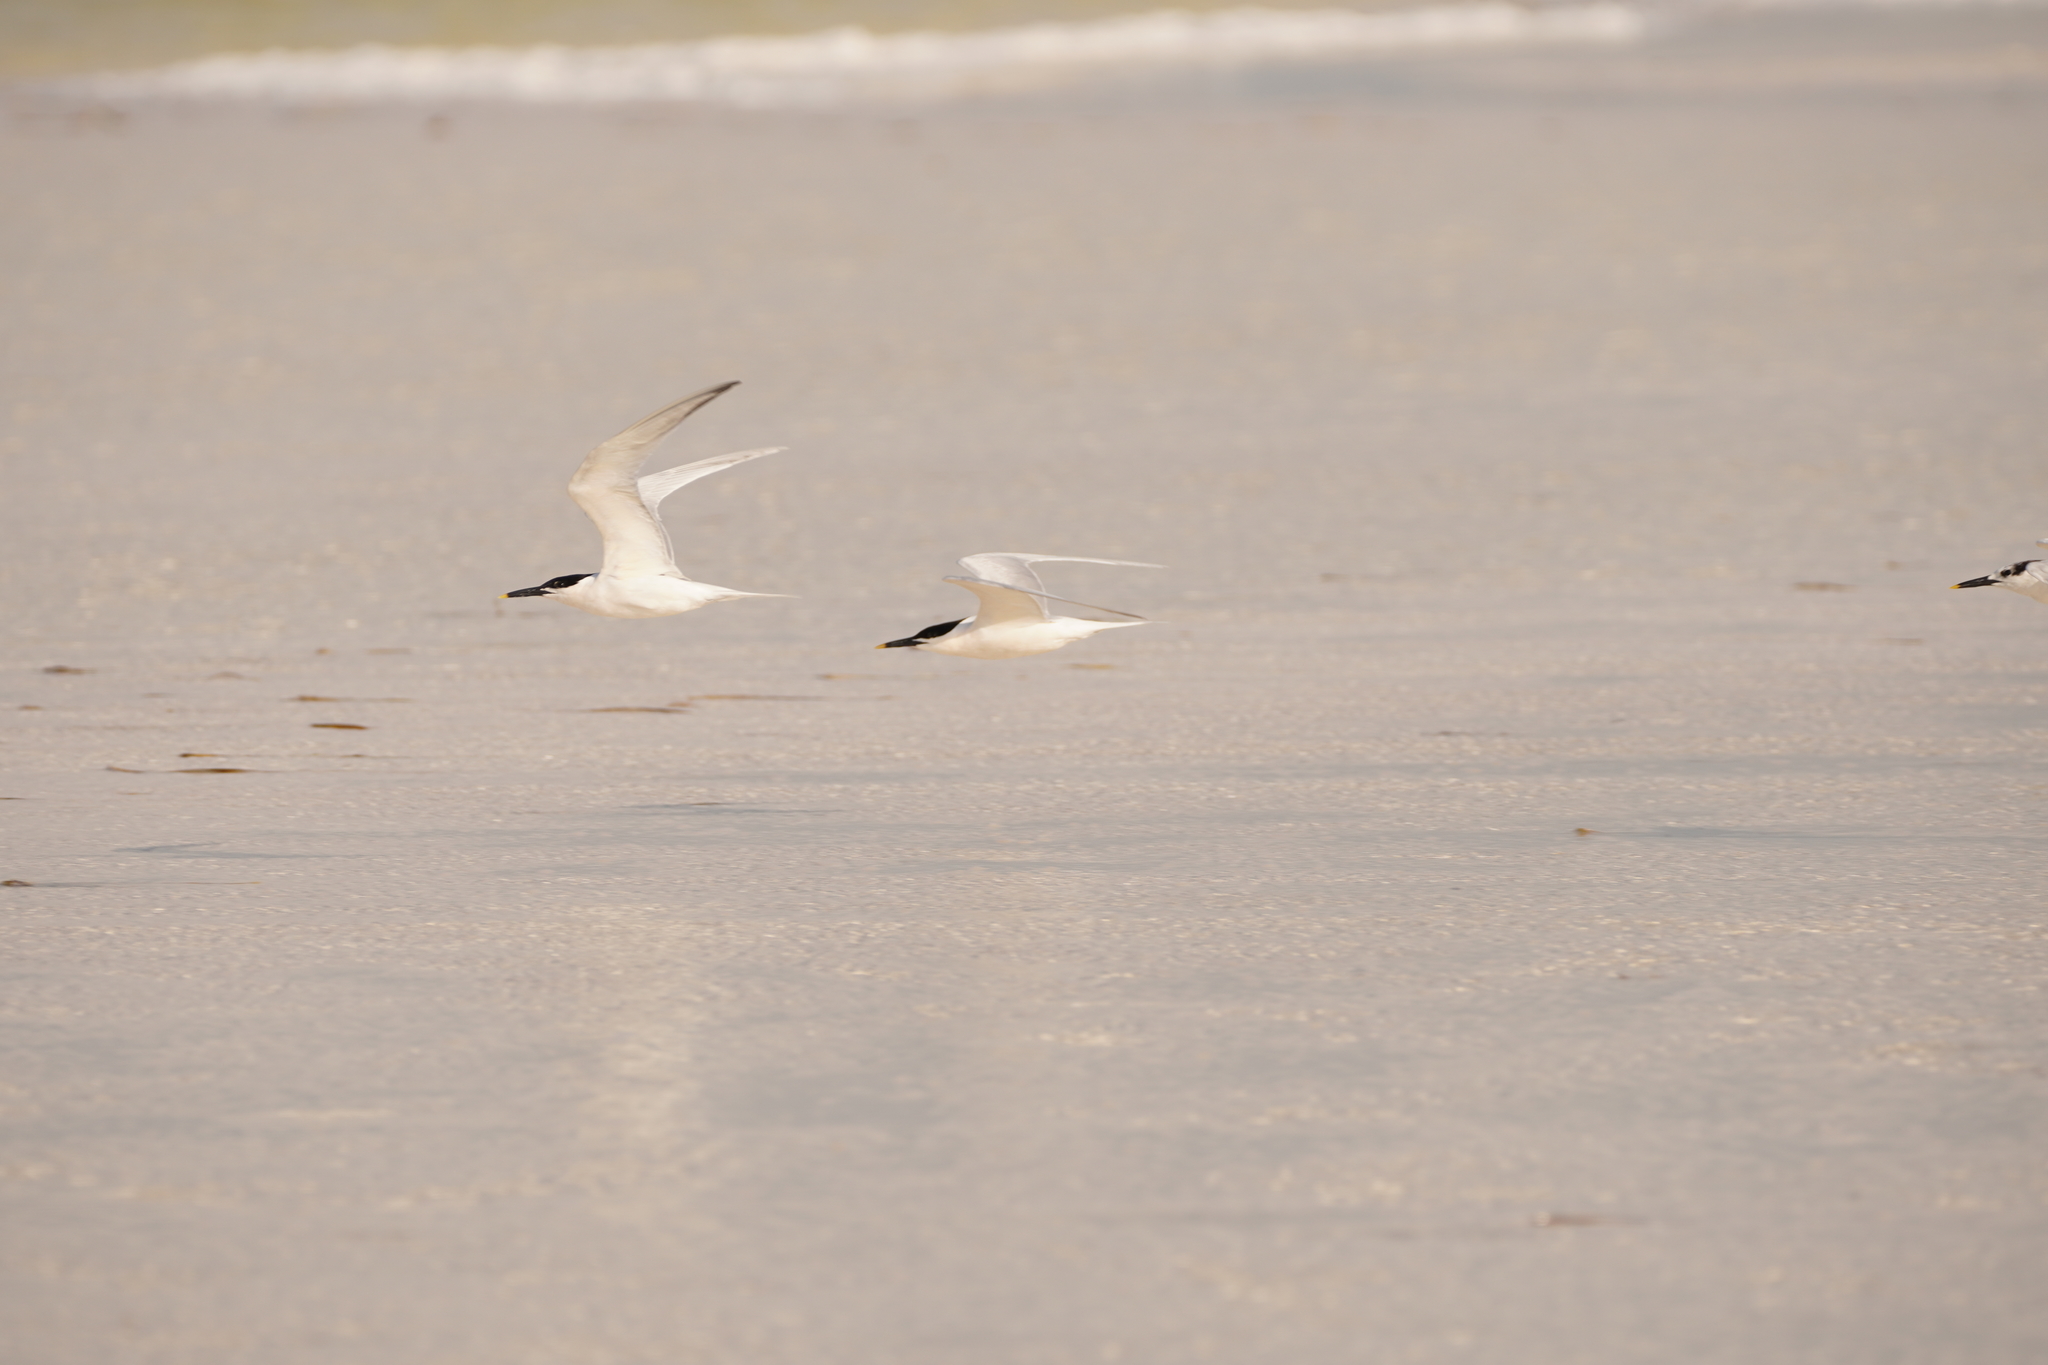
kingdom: Animalia
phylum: Chordata
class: Aves
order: Charadriiformes
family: Laridae
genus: Thalasseus
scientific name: Thalasseus sandvicensis
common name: Sandwich tern
